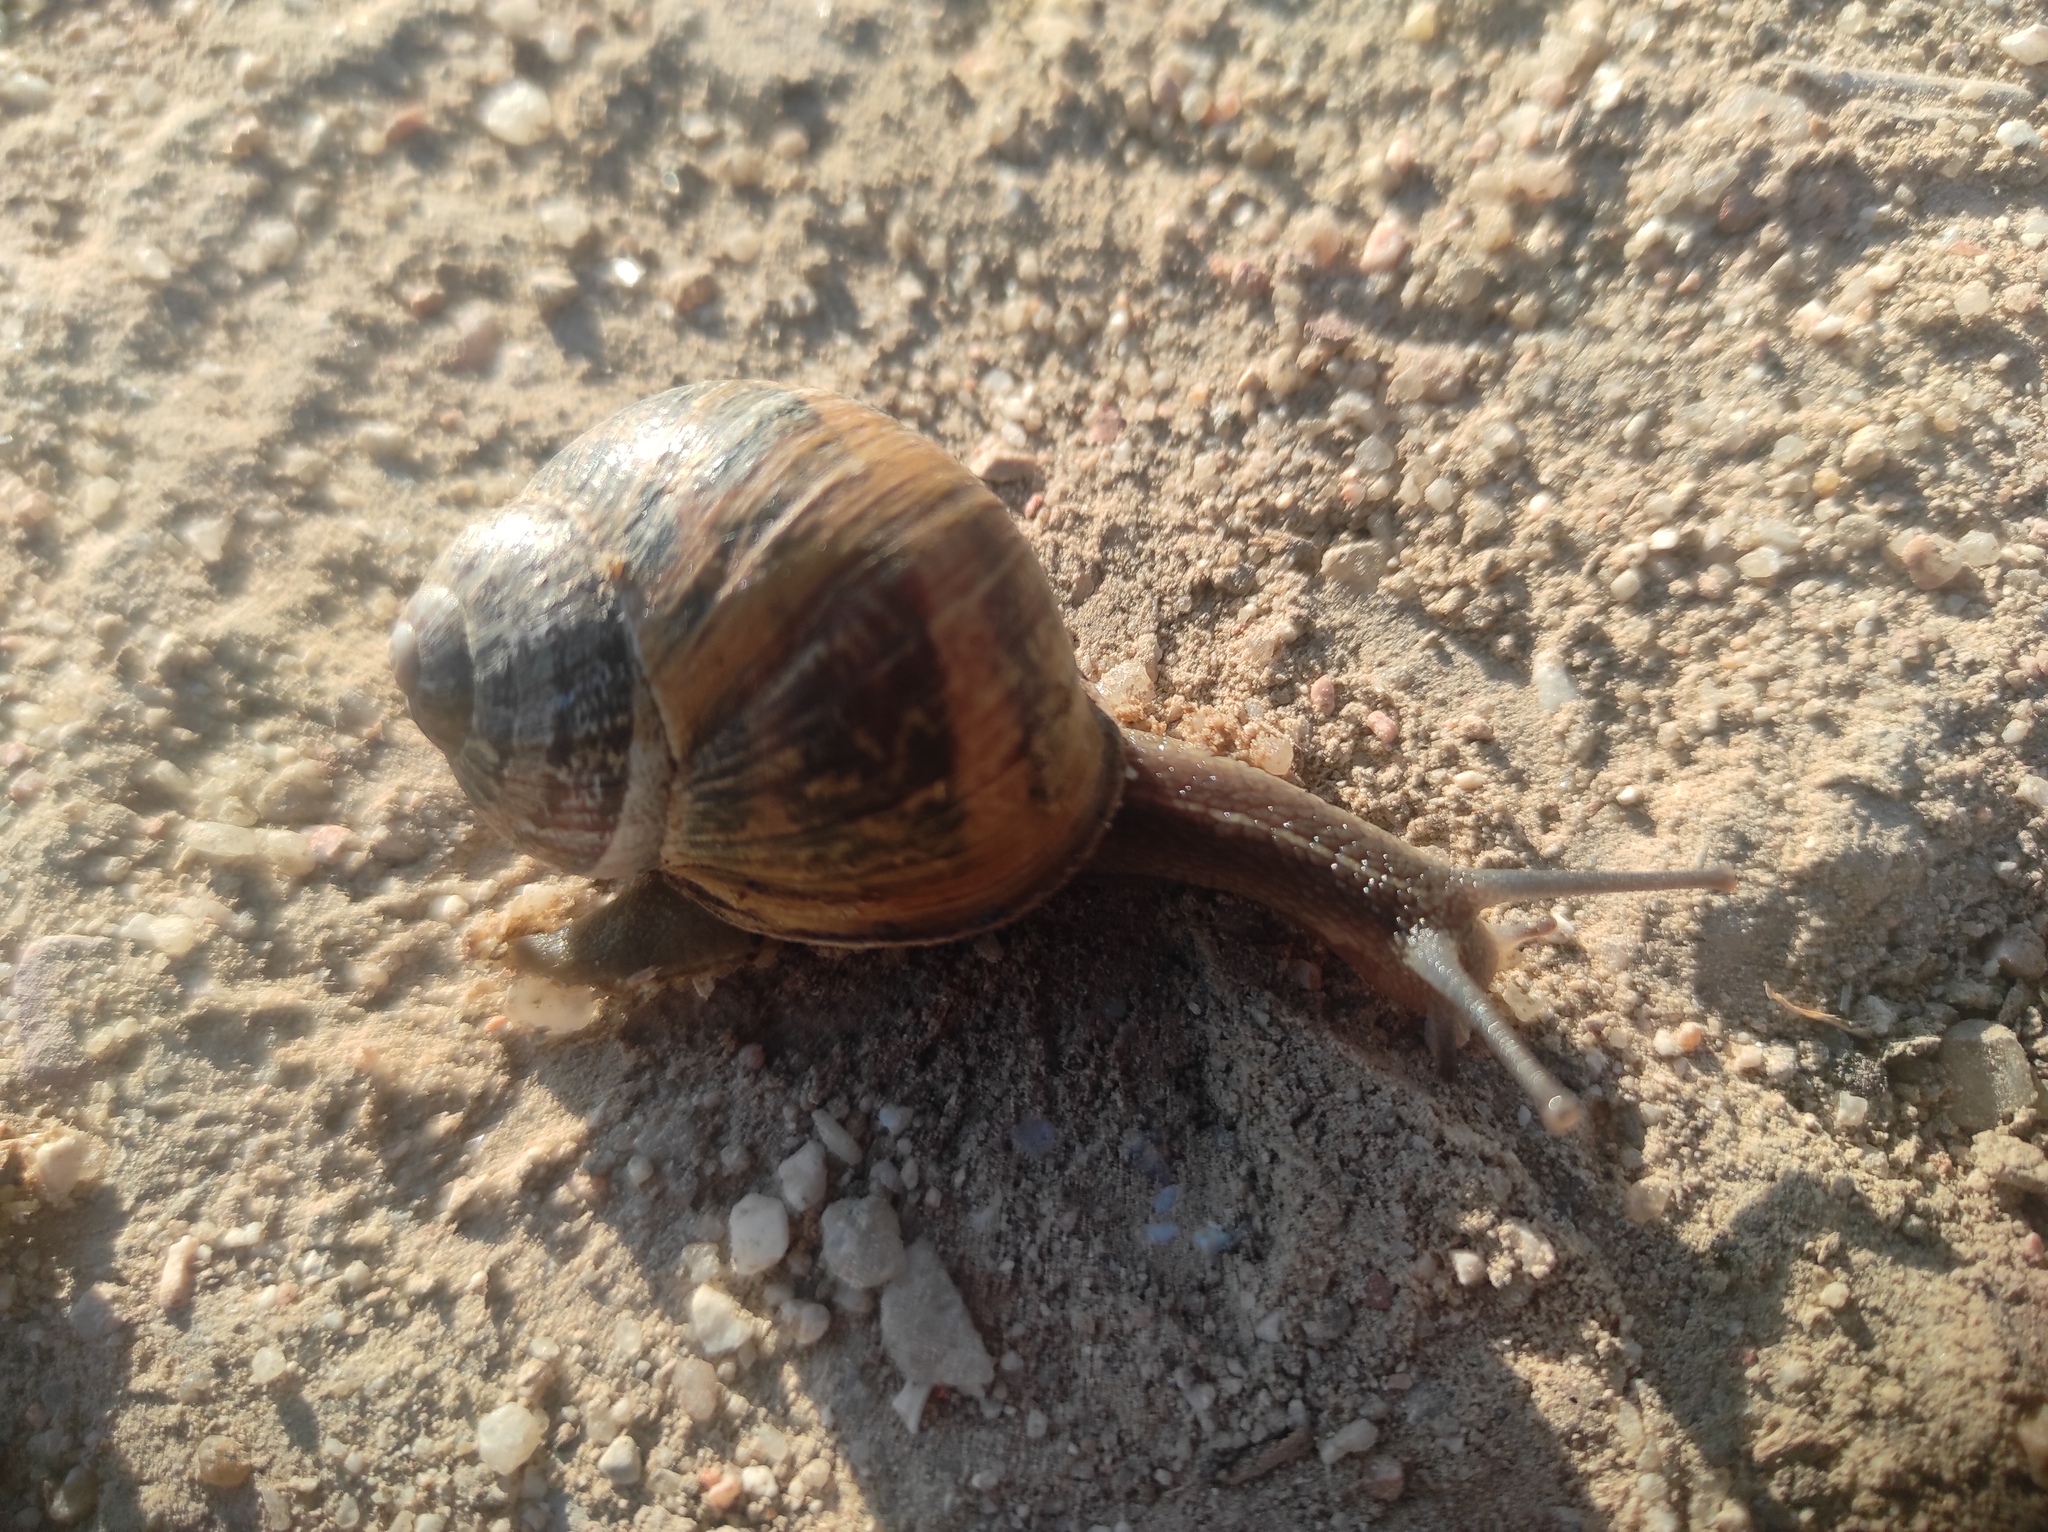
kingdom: Animalia
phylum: Mollusca
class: Gastropoda
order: Stylommatophora
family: Helicidae
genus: Cornu
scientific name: Cornu aspersum
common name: Brown garden snail
